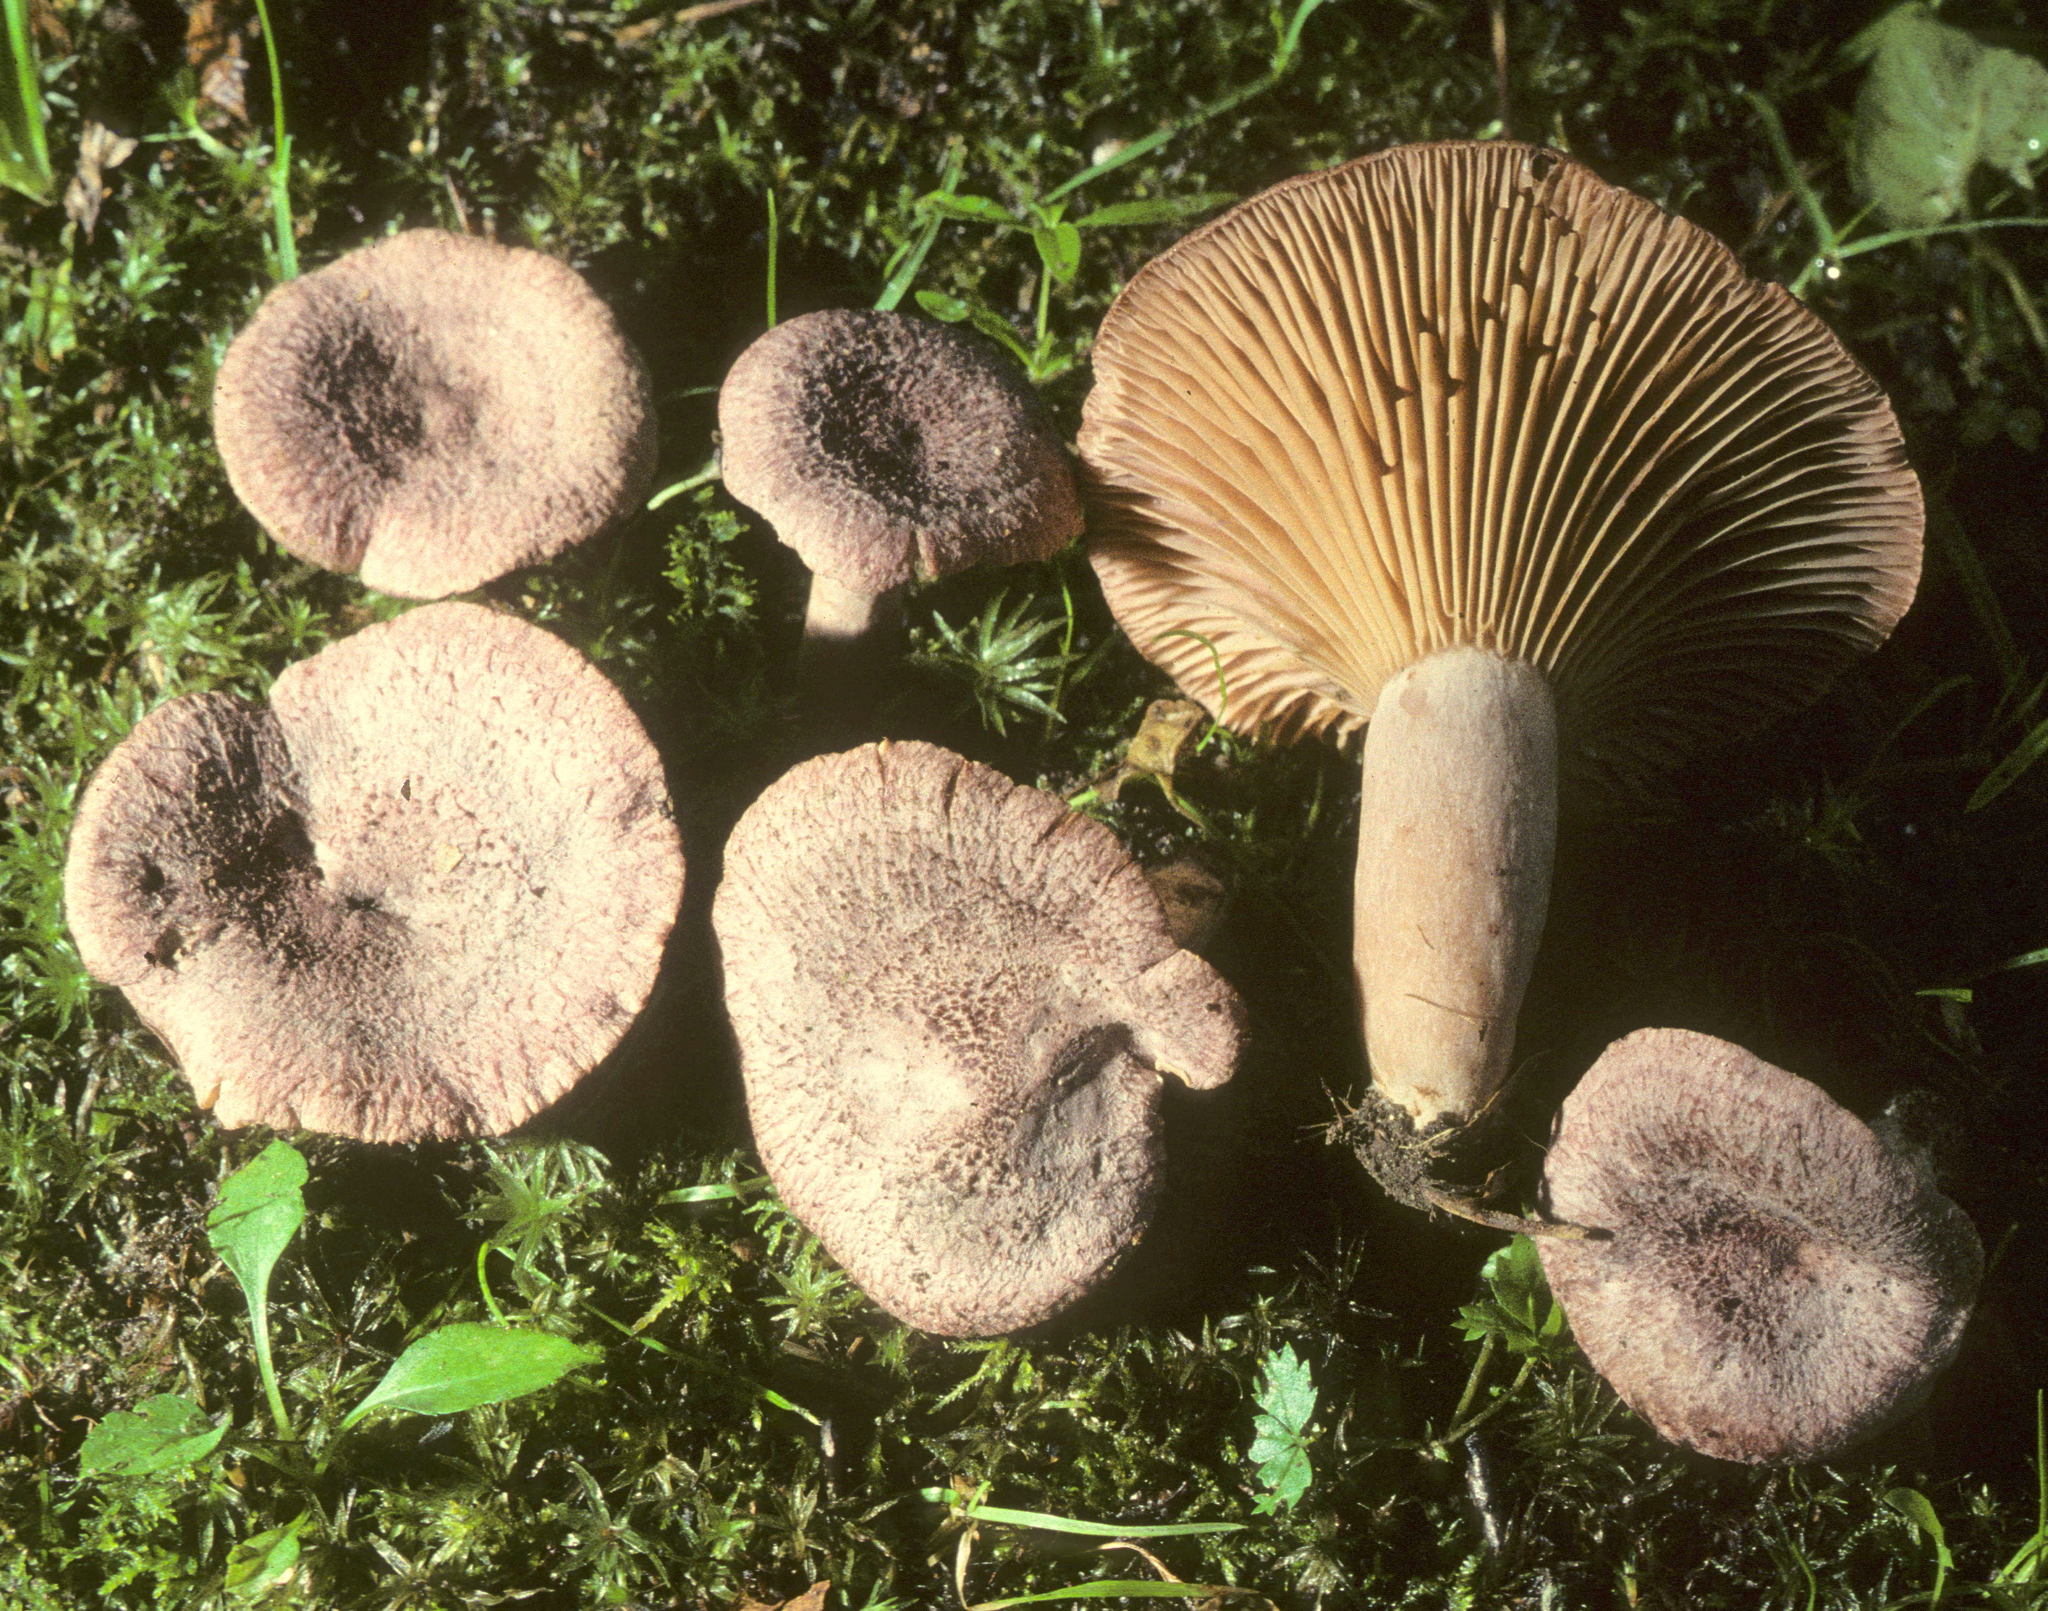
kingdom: Fungi
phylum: Basidiomycota
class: Agaricomycetes
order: Russulales
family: Russulaceae
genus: Lactarius
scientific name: Lactarius purpureoechinatus
